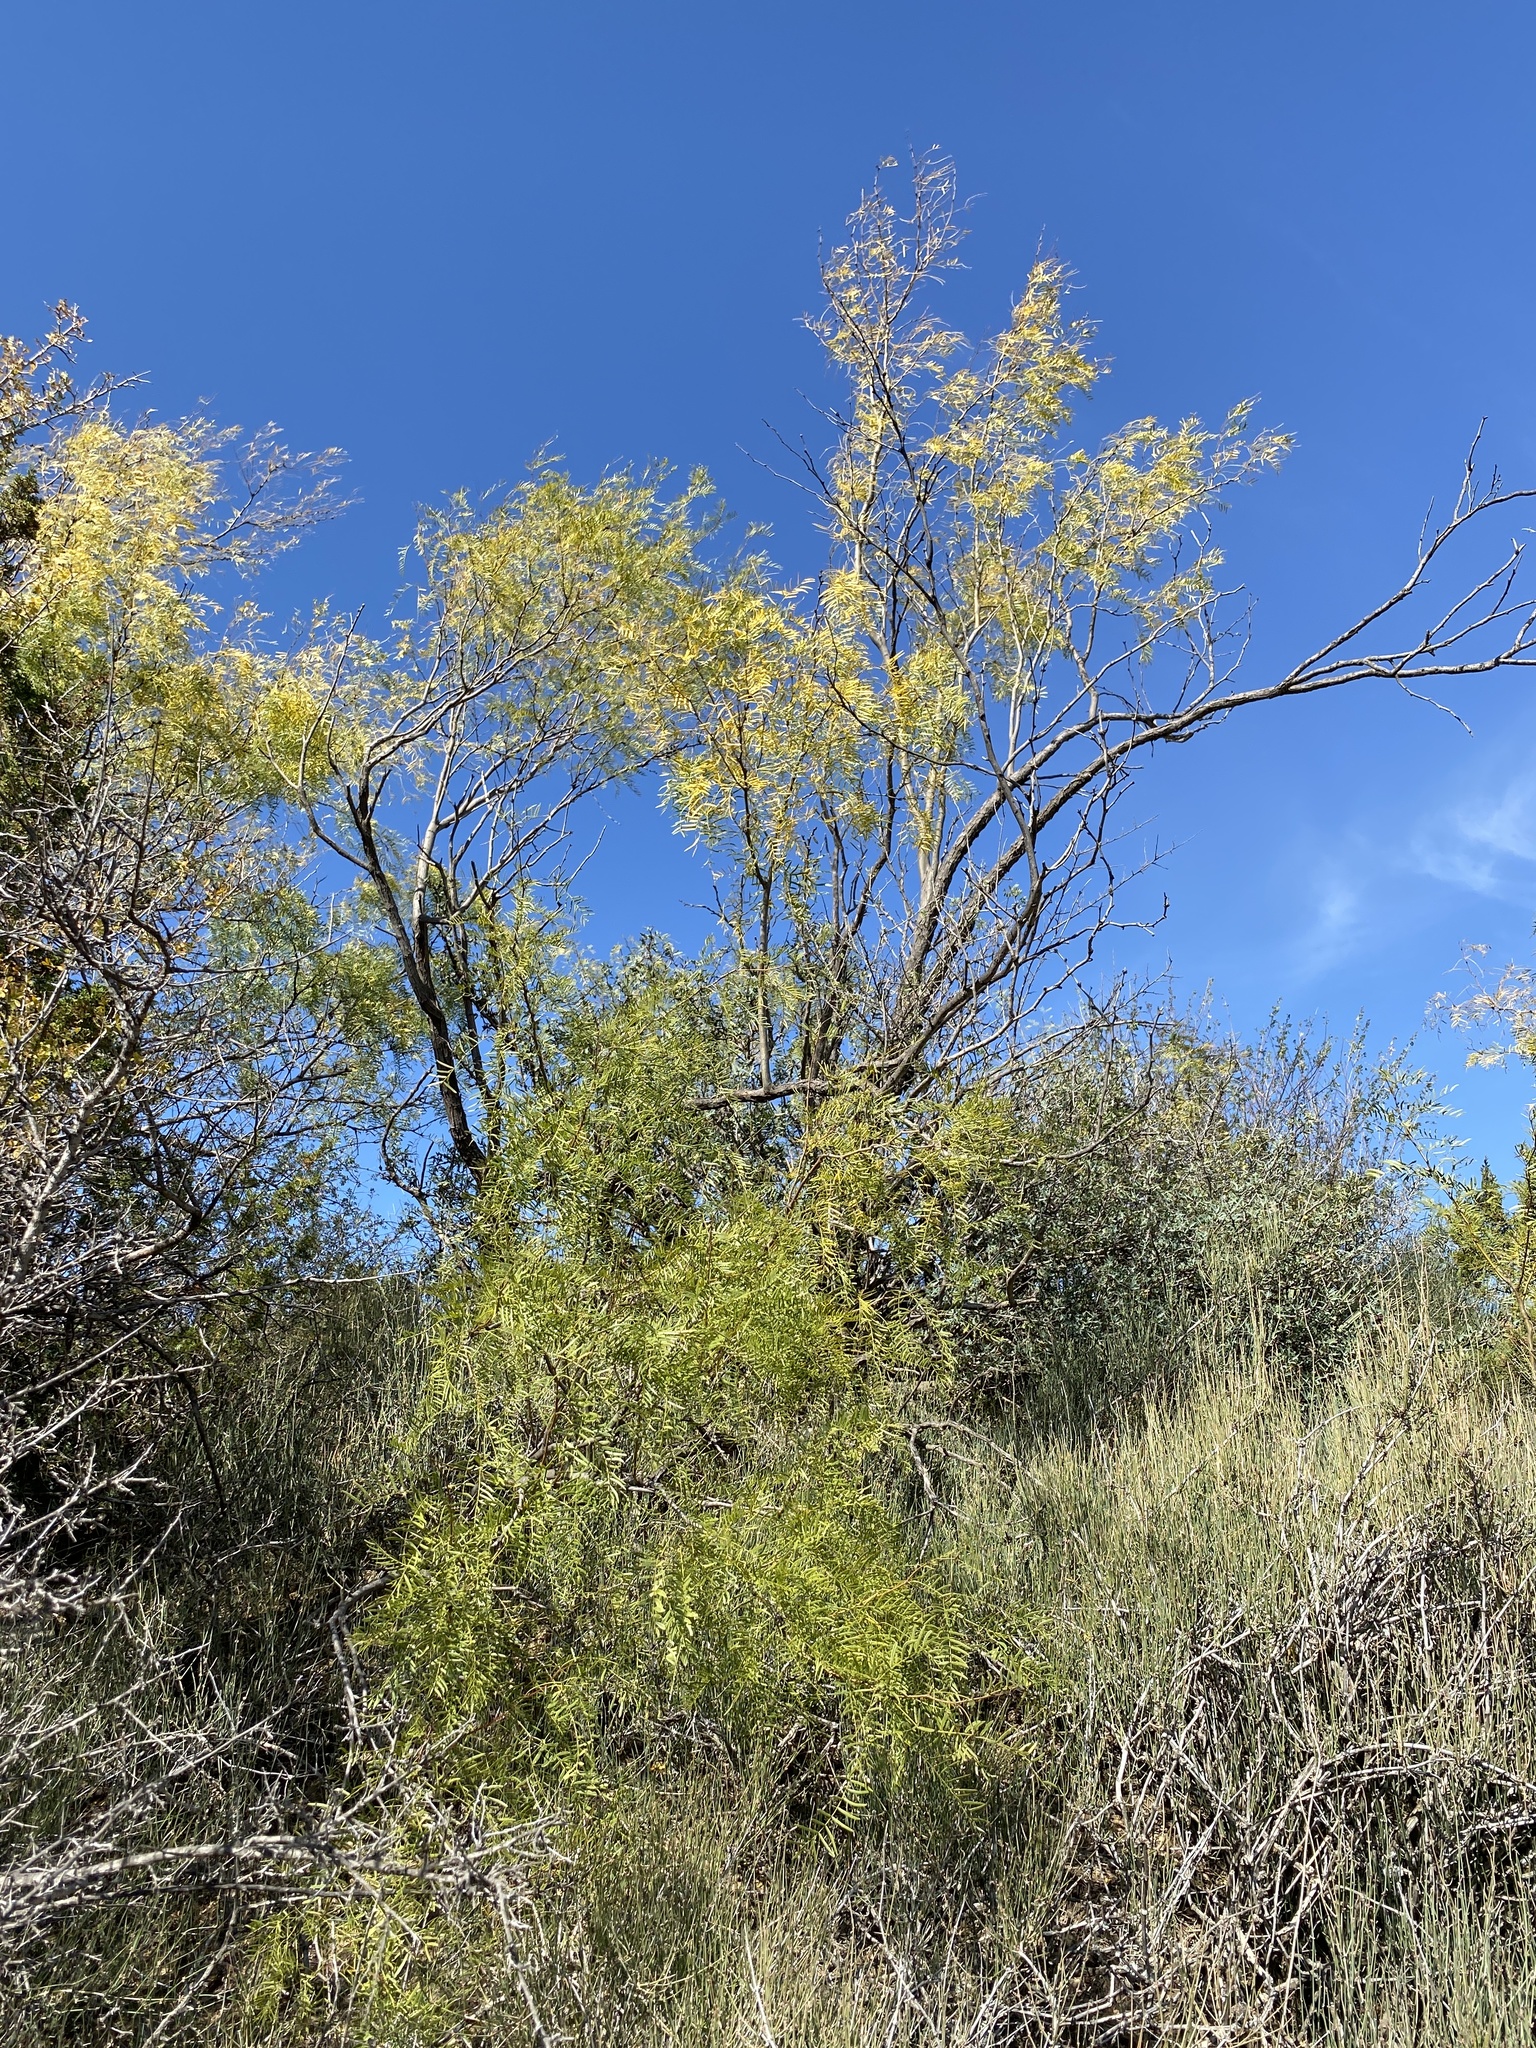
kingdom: Plantae
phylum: Tracheophyta
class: Magnoliopsida
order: Fabales
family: Fabaceae
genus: Prosopis
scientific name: Prosopis glandulosa
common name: Honey mesquite
